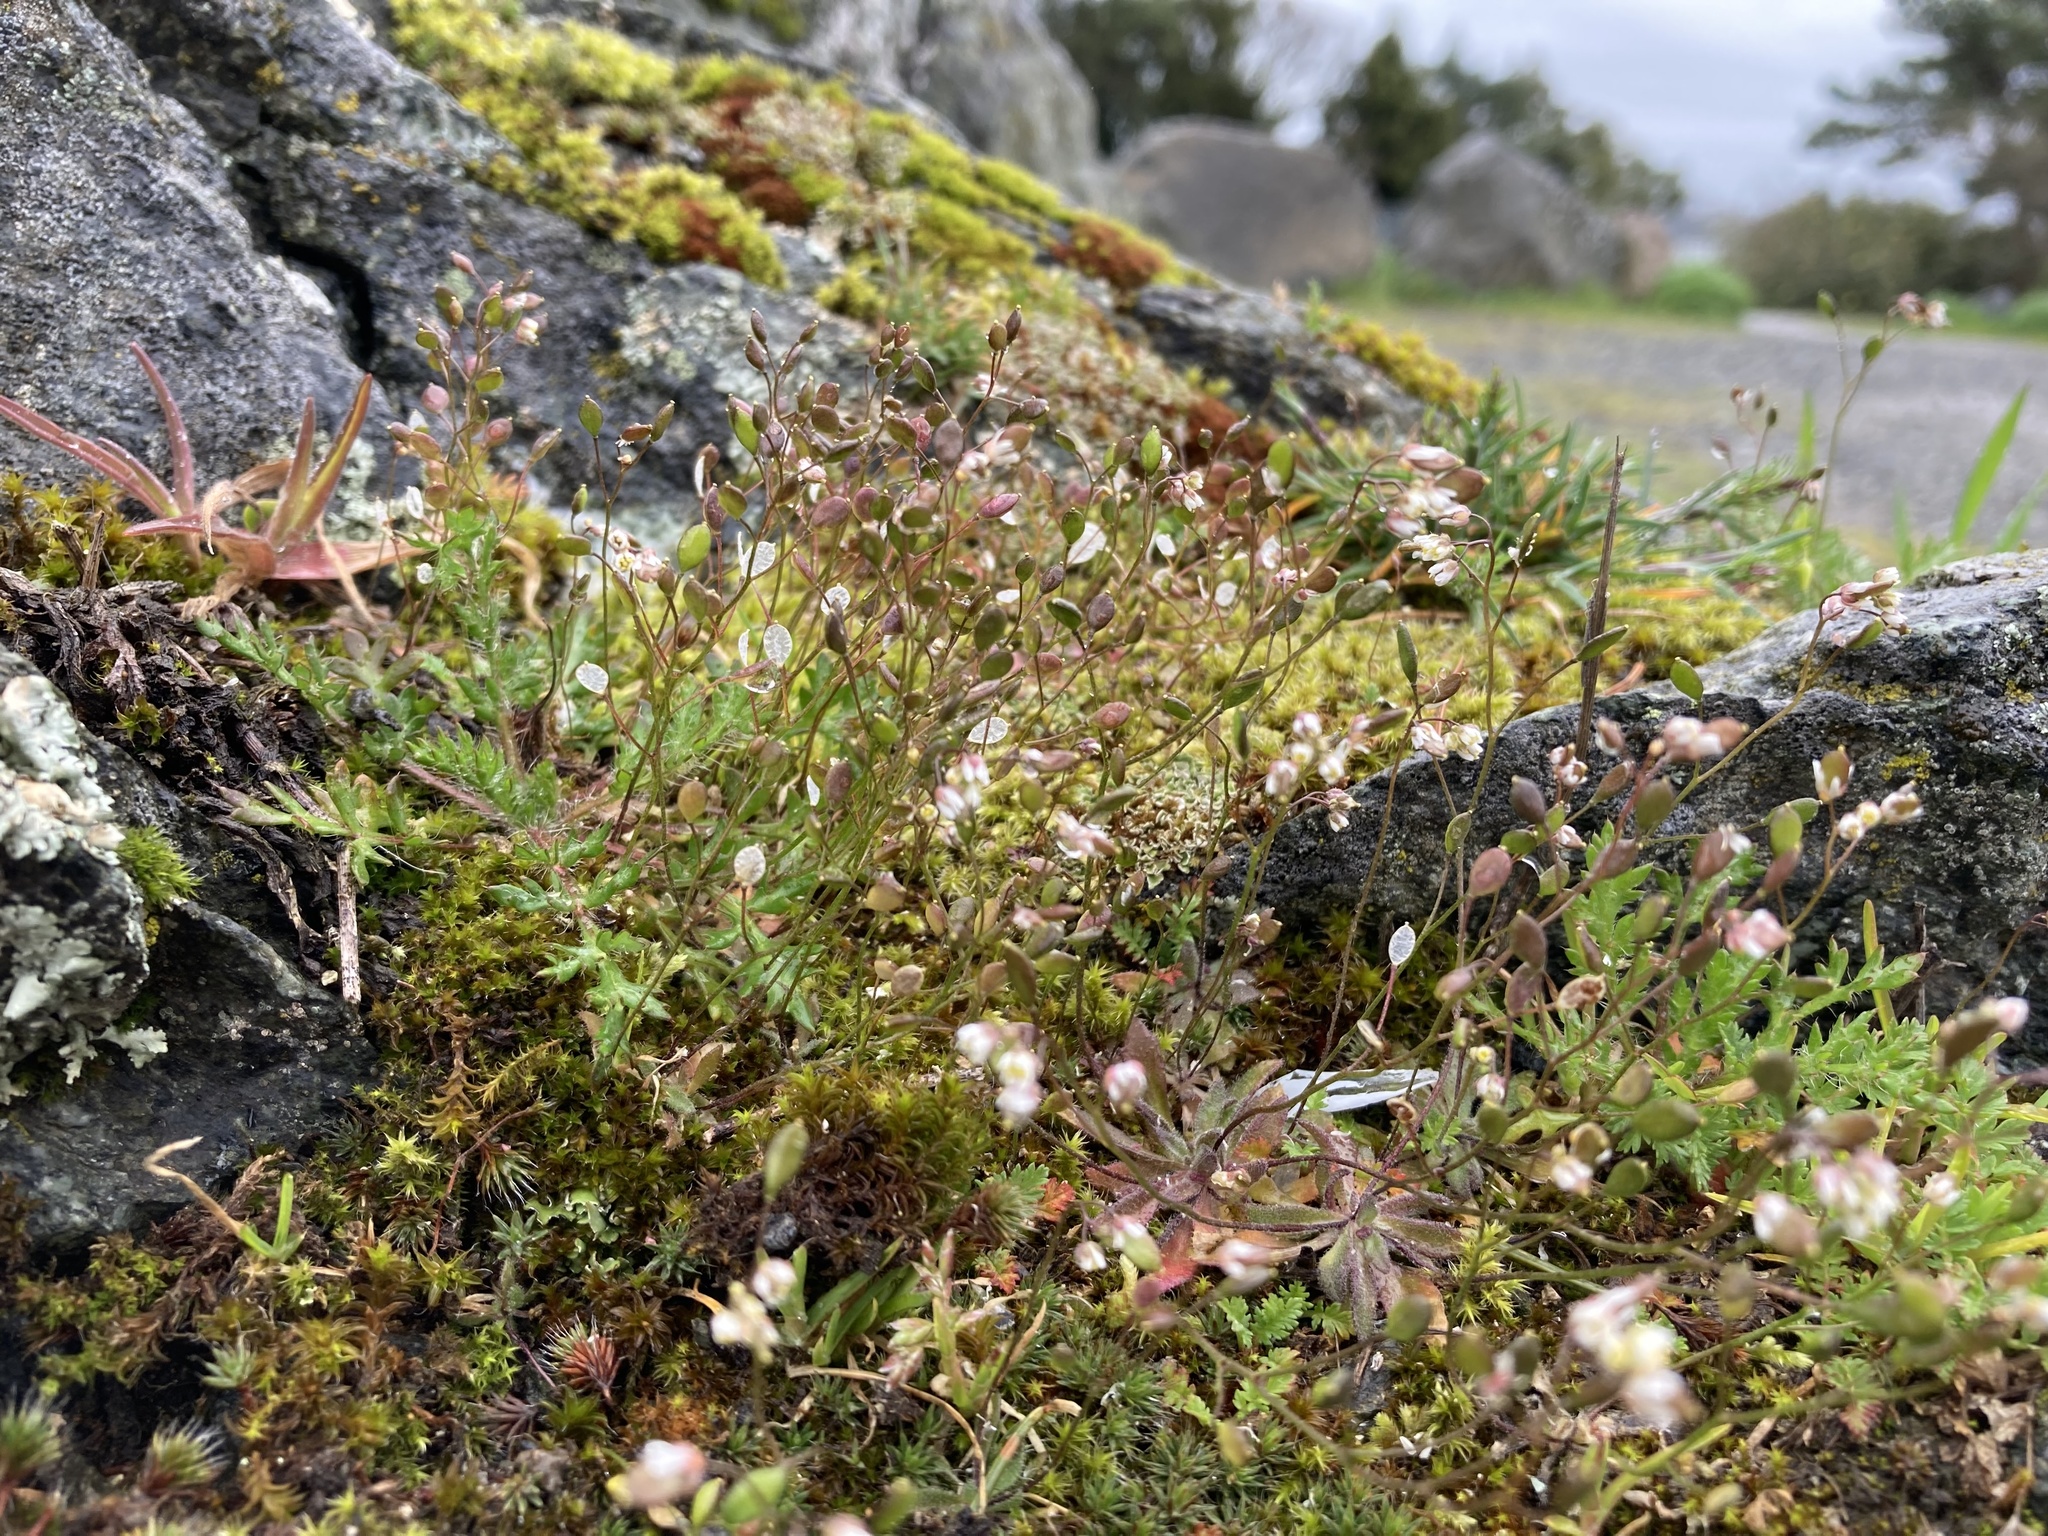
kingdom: Plantae
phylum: Tracheophyta
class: Magnoliopsida
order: Brassicales
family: Brassicaceae
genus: Draba
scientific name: Draba verna
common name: Spring draba
